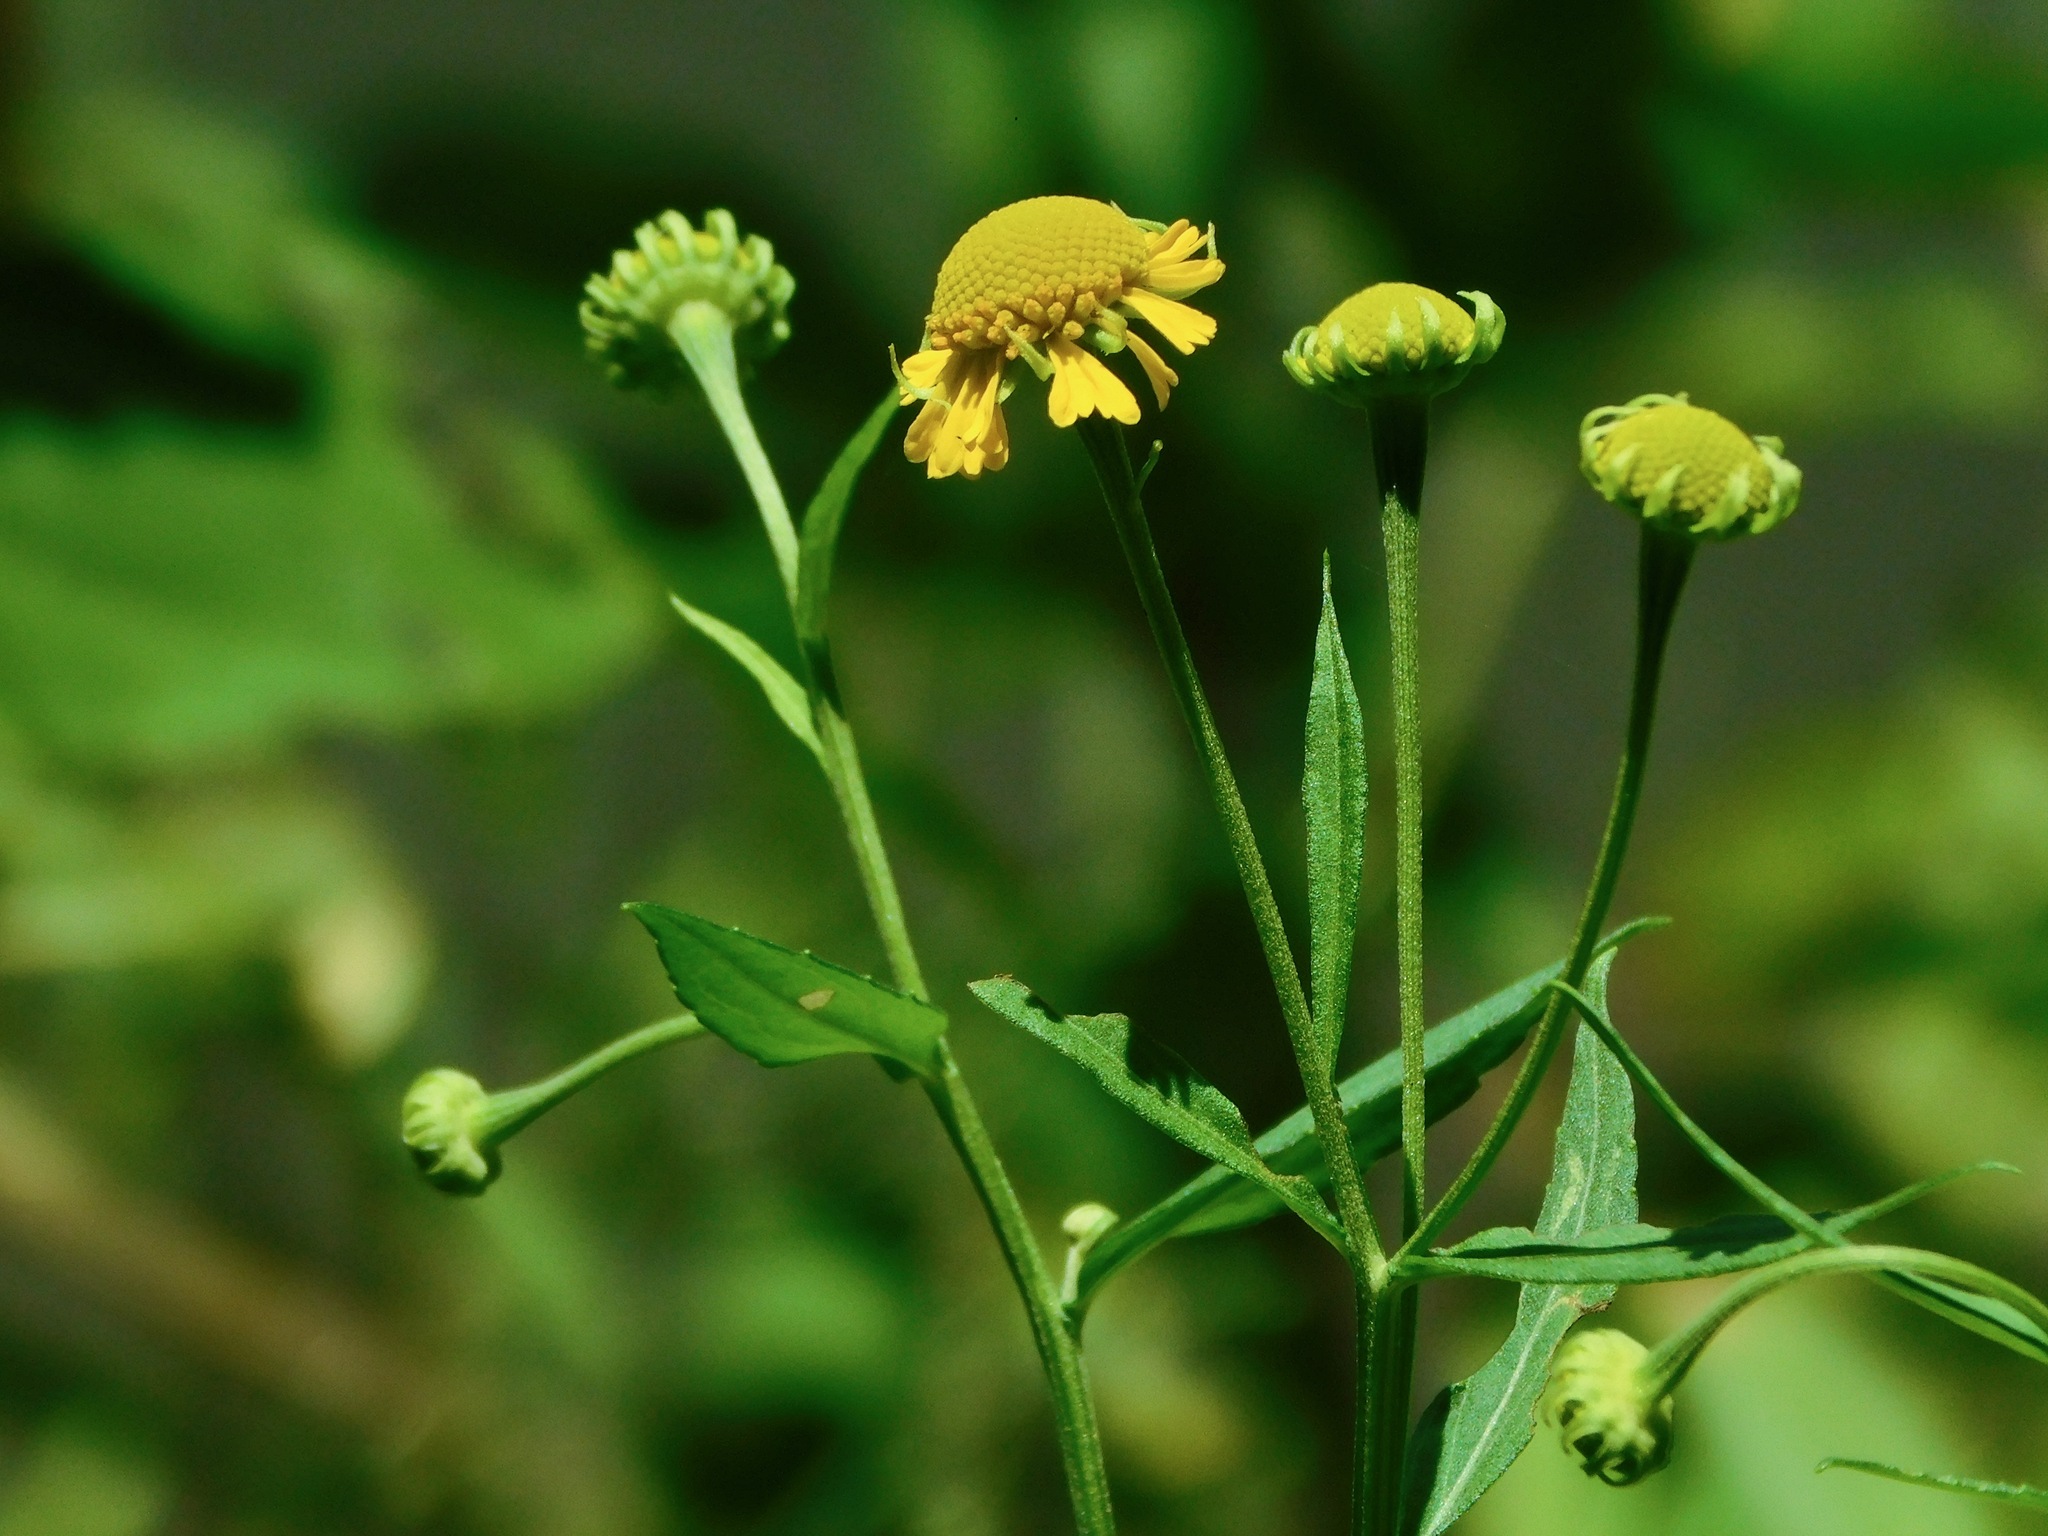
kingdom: Plantae
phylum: Tracheophyta
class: Magnoliopsida
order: Asterales
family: Asteraceae
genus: Helenium
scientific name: Helenium autumnale
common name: Sneezeweed
